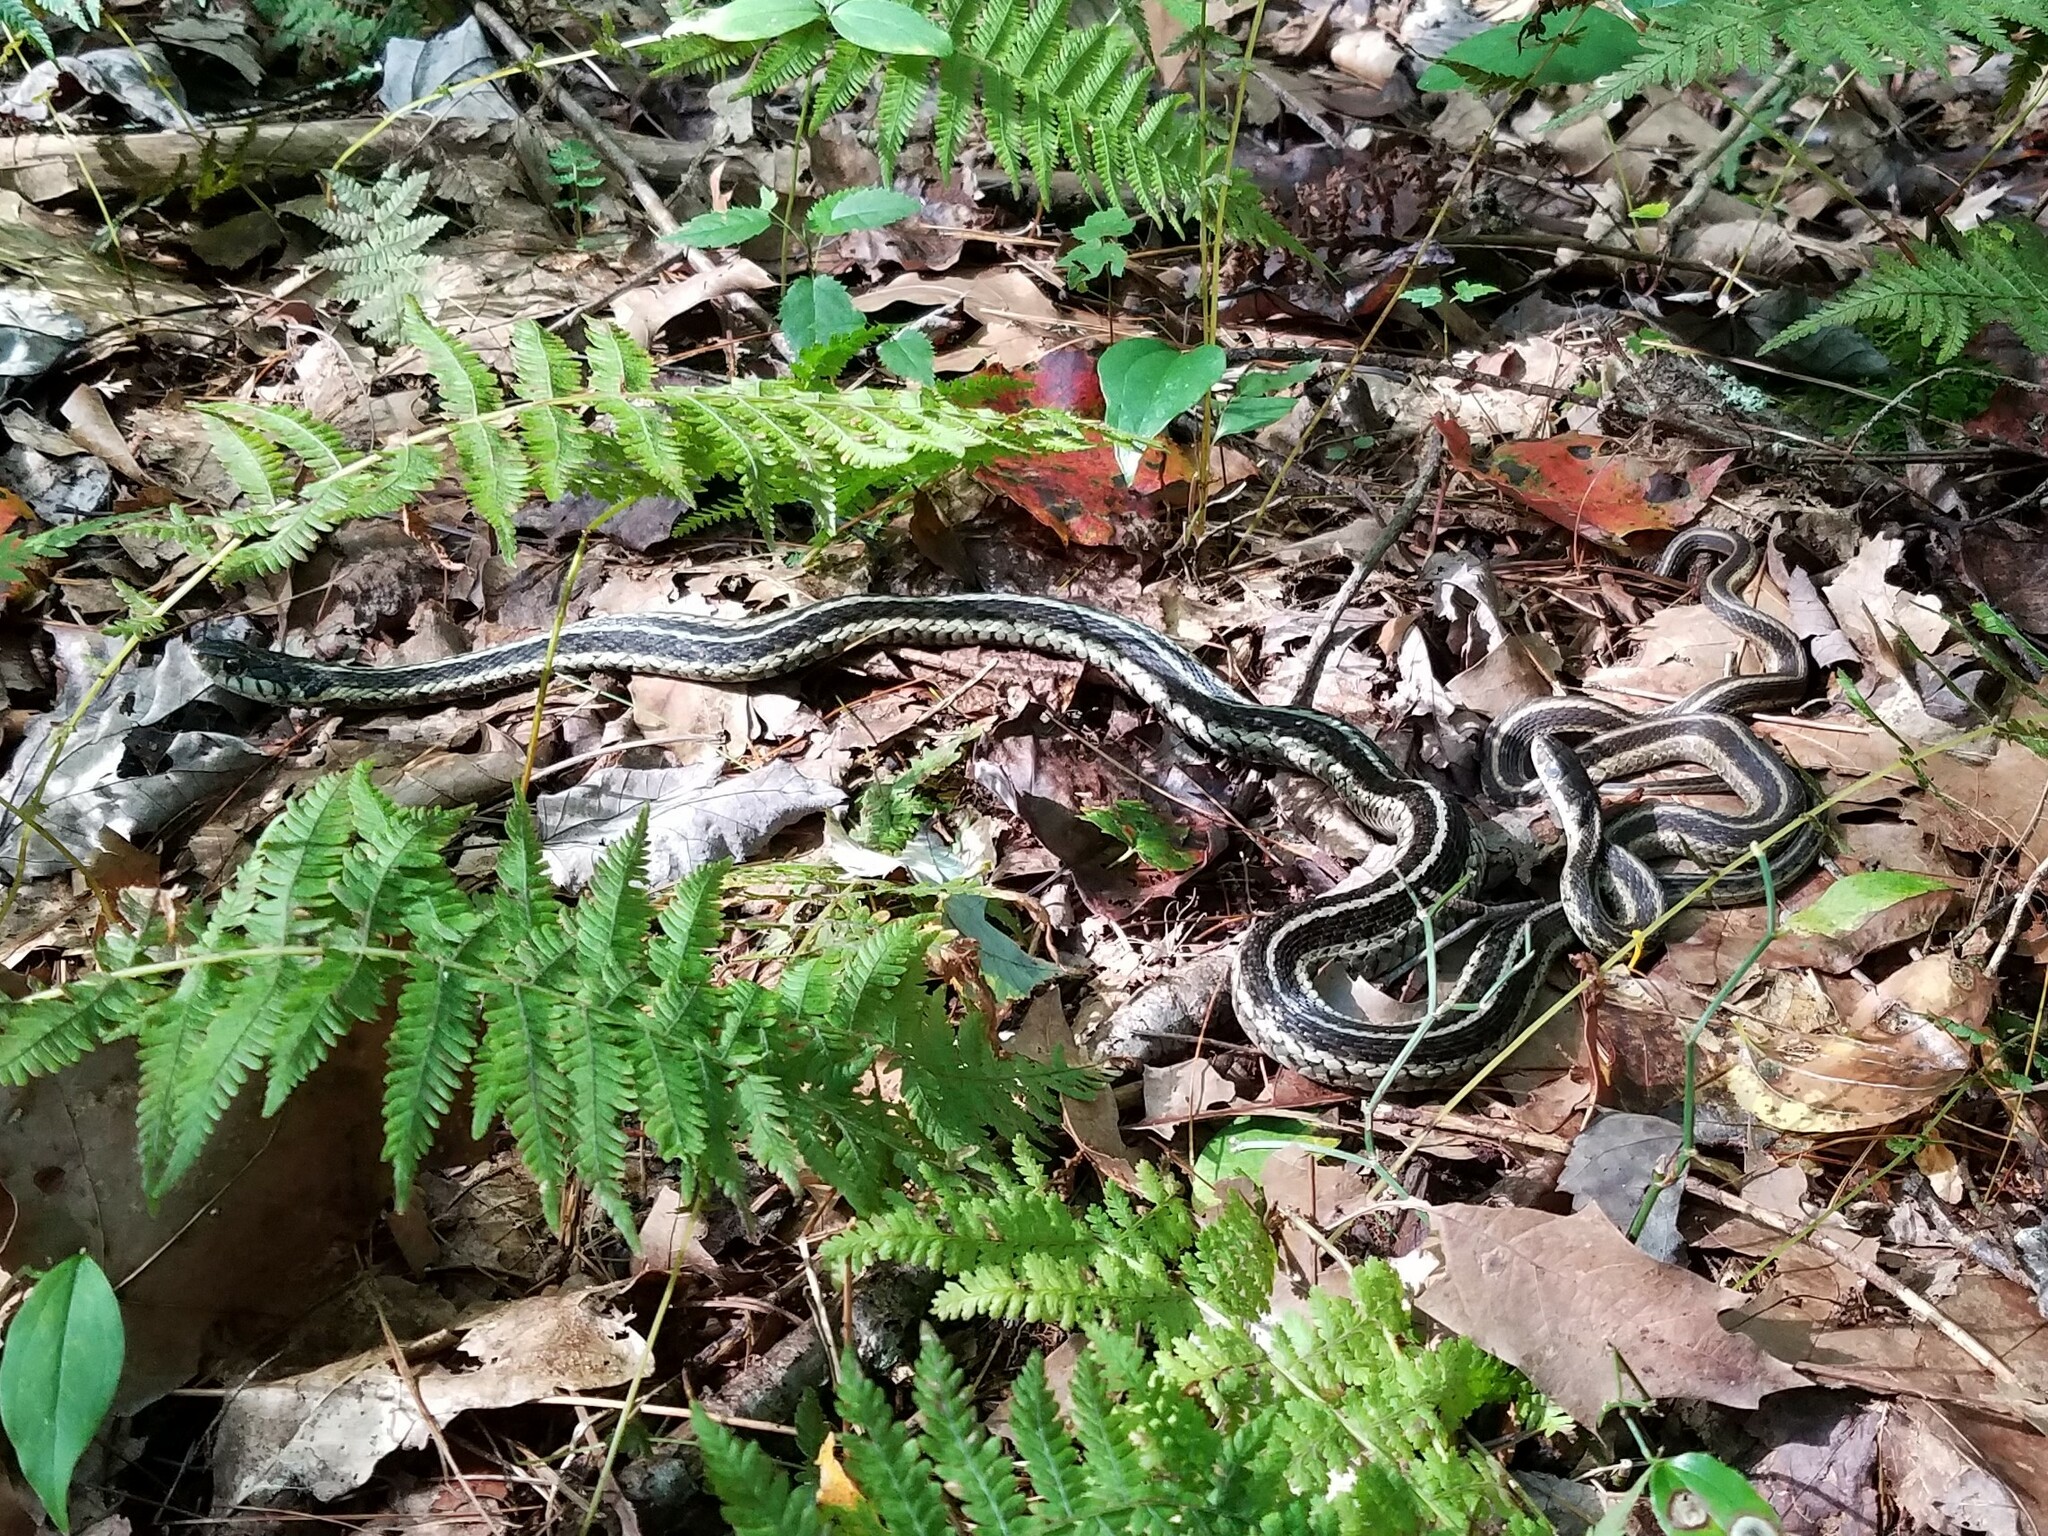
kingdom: Animalia
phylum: Chordata
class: Squamata
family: Colubridae
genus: Thamnophis
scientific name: Thamnophis sirtalis
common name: Common garter snake
